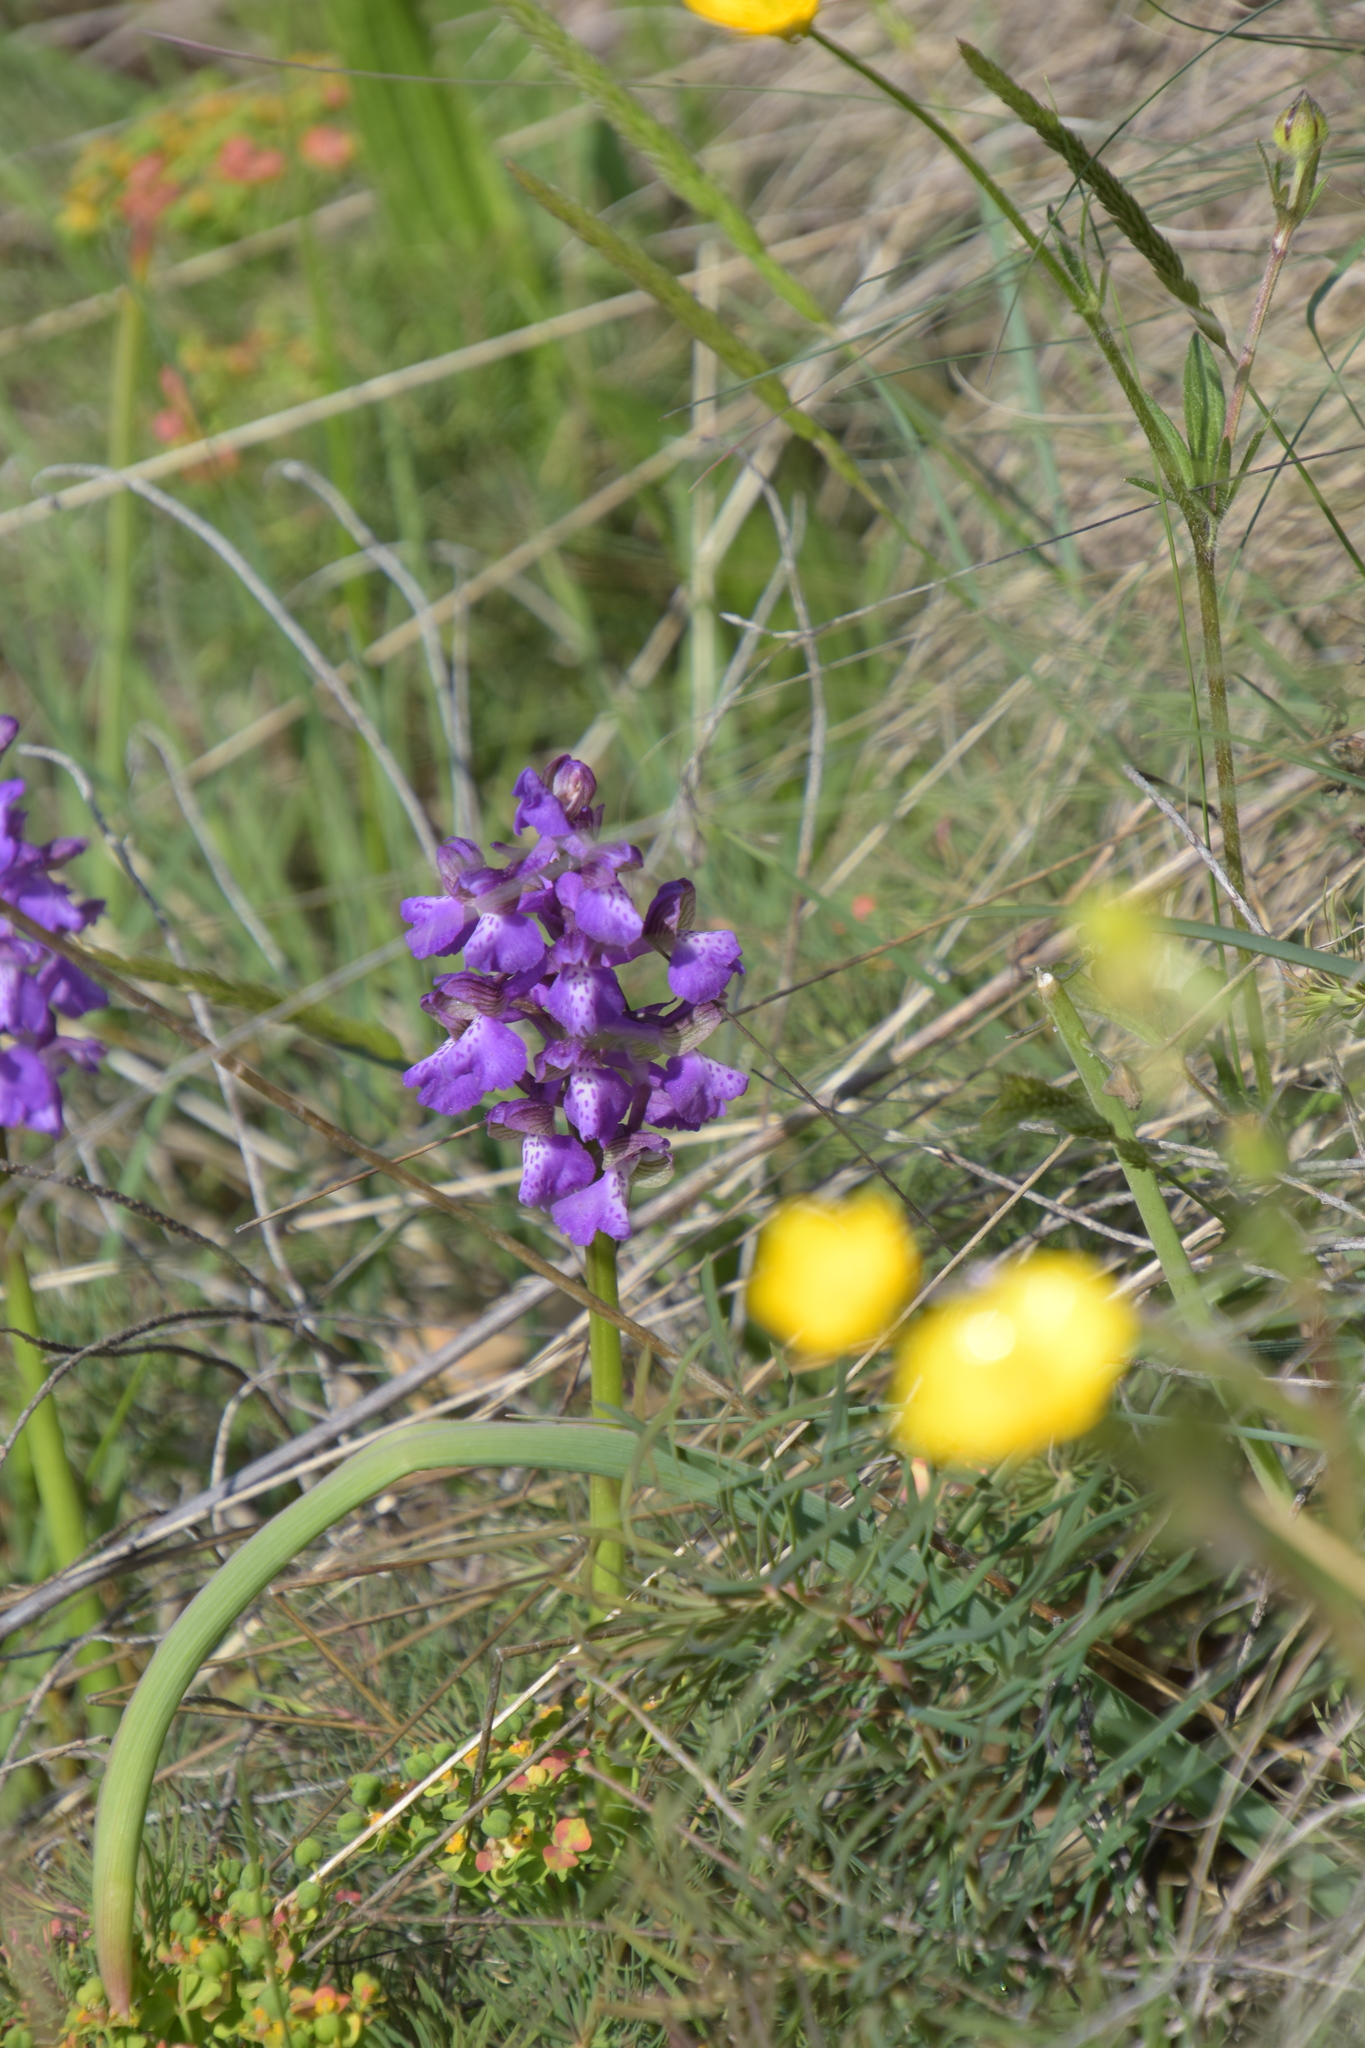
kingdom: Plantae
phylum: Tracheophyta
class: Liliopsida
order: Asparagales
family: Orchidaceae
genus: Anacamptis
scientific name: Anacamptis morio
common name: Green-winged orchid
